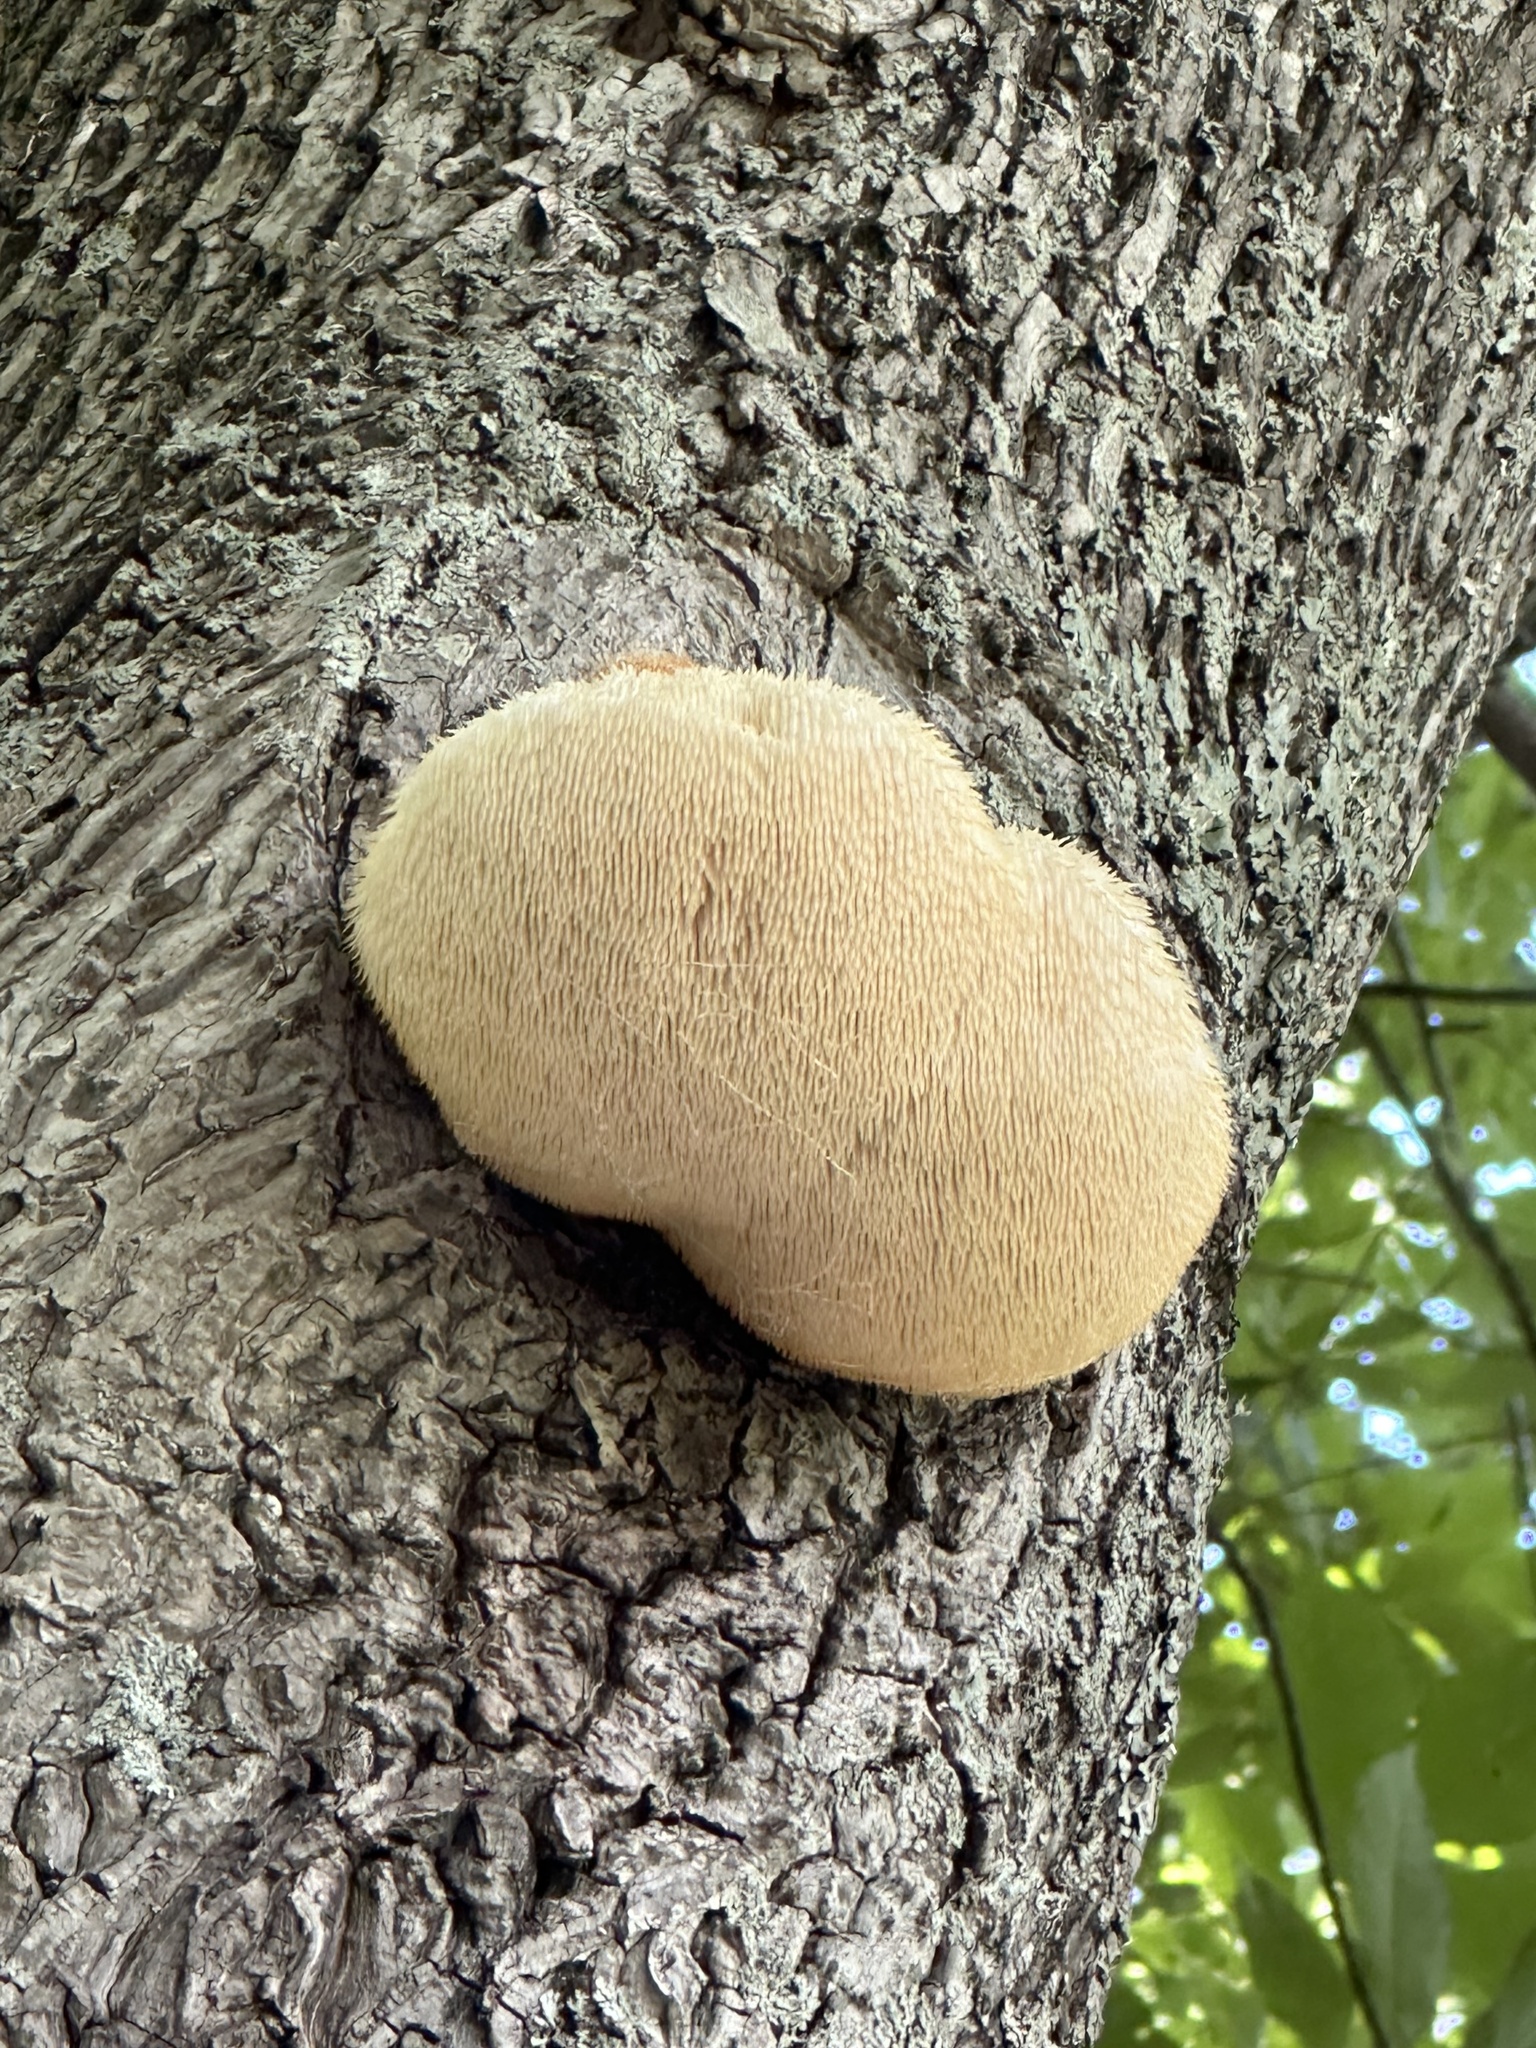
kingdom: Fungi
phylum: Basidiomycota
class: Agaricomycetes
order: Russulales
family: Hericiaceae
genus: Hericium
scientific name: Hericium erinaceus
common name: Bearded tooth
